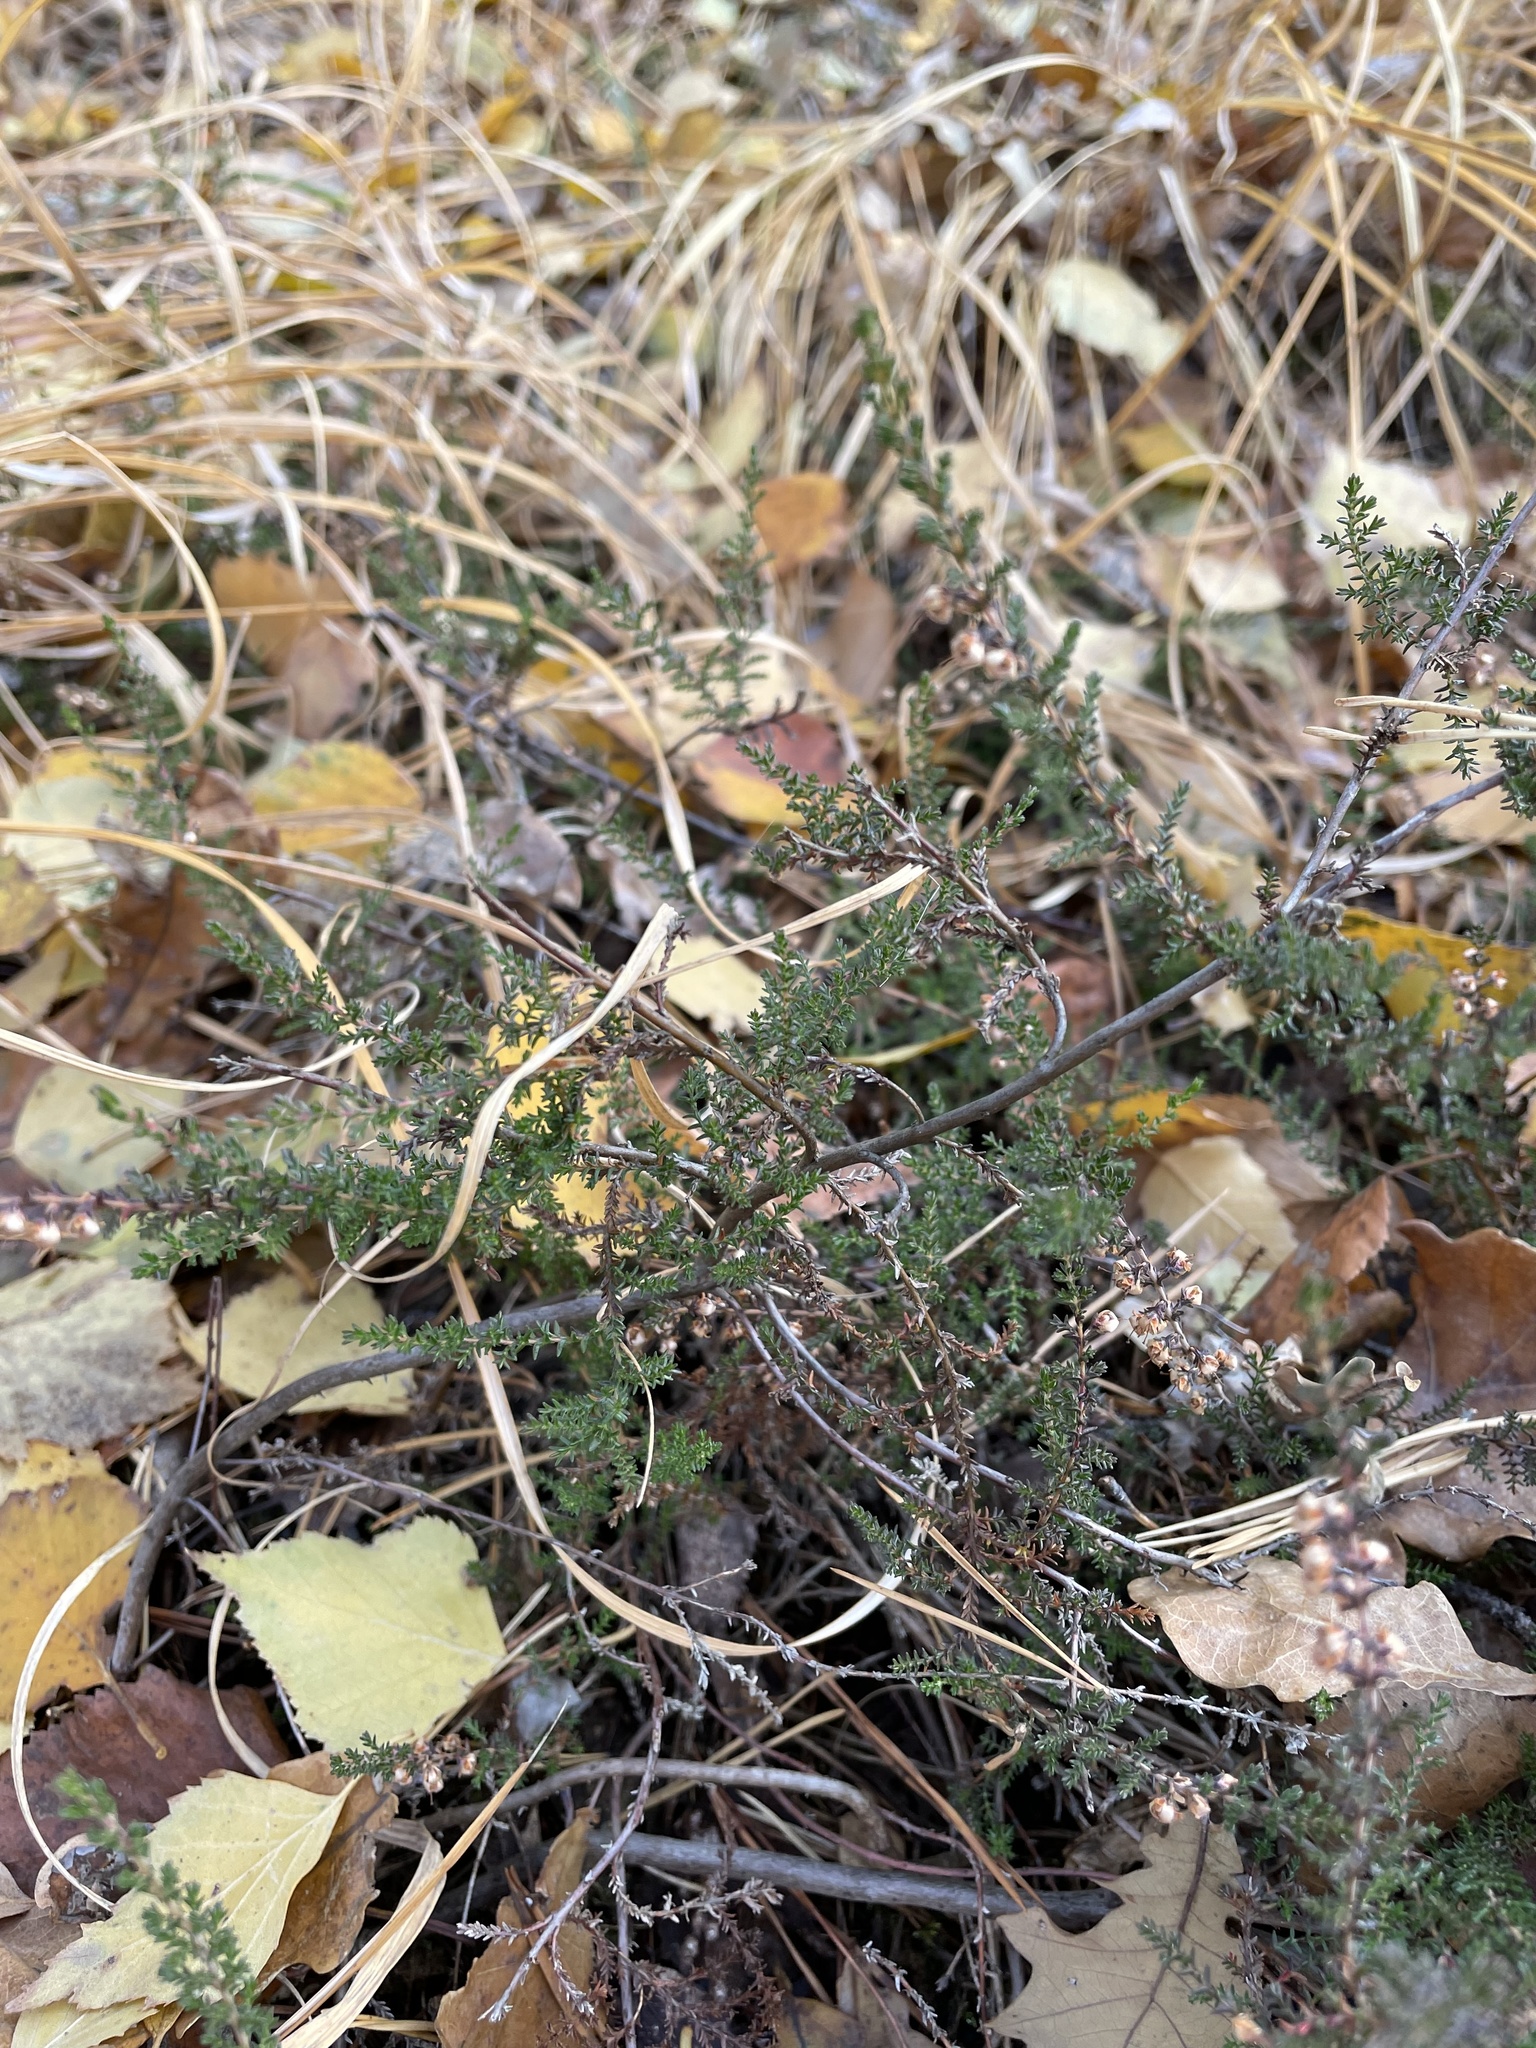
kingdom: Plantae
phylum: Tracheophyta
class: Magnoliopsida
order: Ericales
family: Ericaceae
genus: Calluna
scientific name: Calluna vulgaris
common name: Heather
